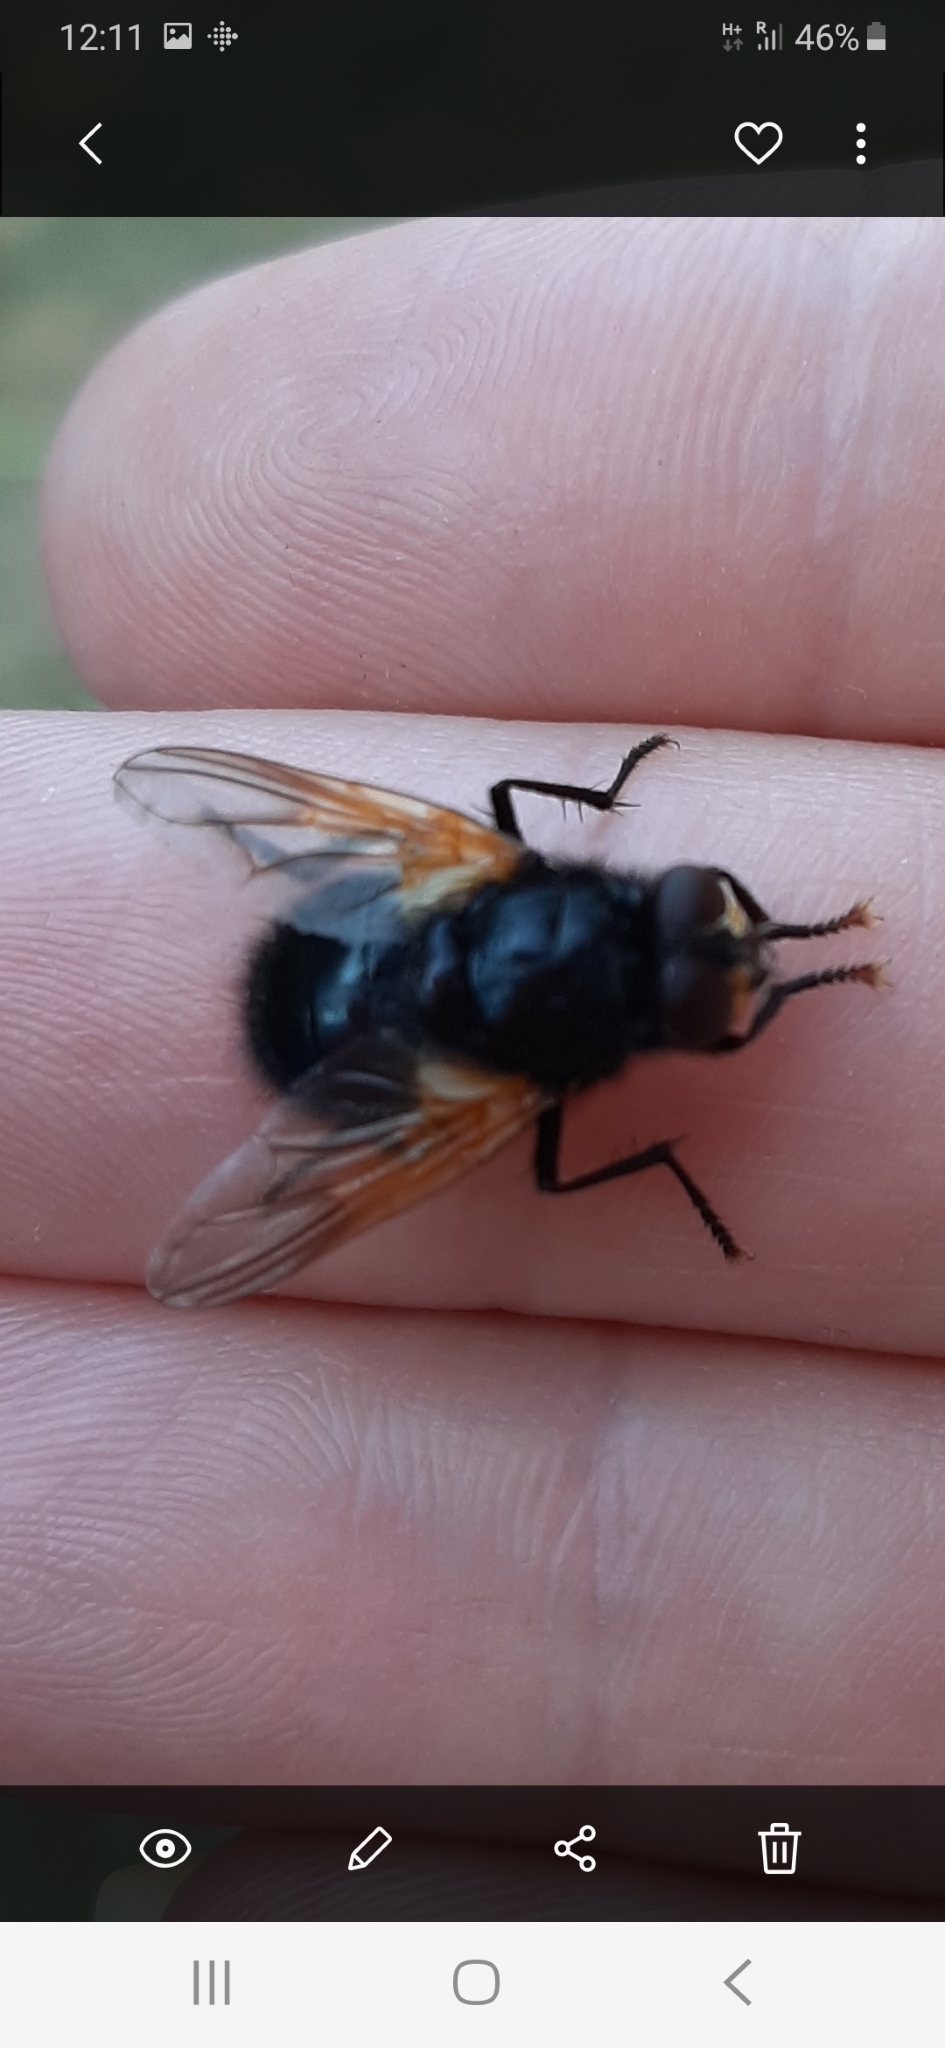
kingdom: Animalia
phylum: Arthropoda
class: Insecta
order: Diptera
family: Muscidae
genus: Mesembrina
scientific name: Mesembrina meridiana
